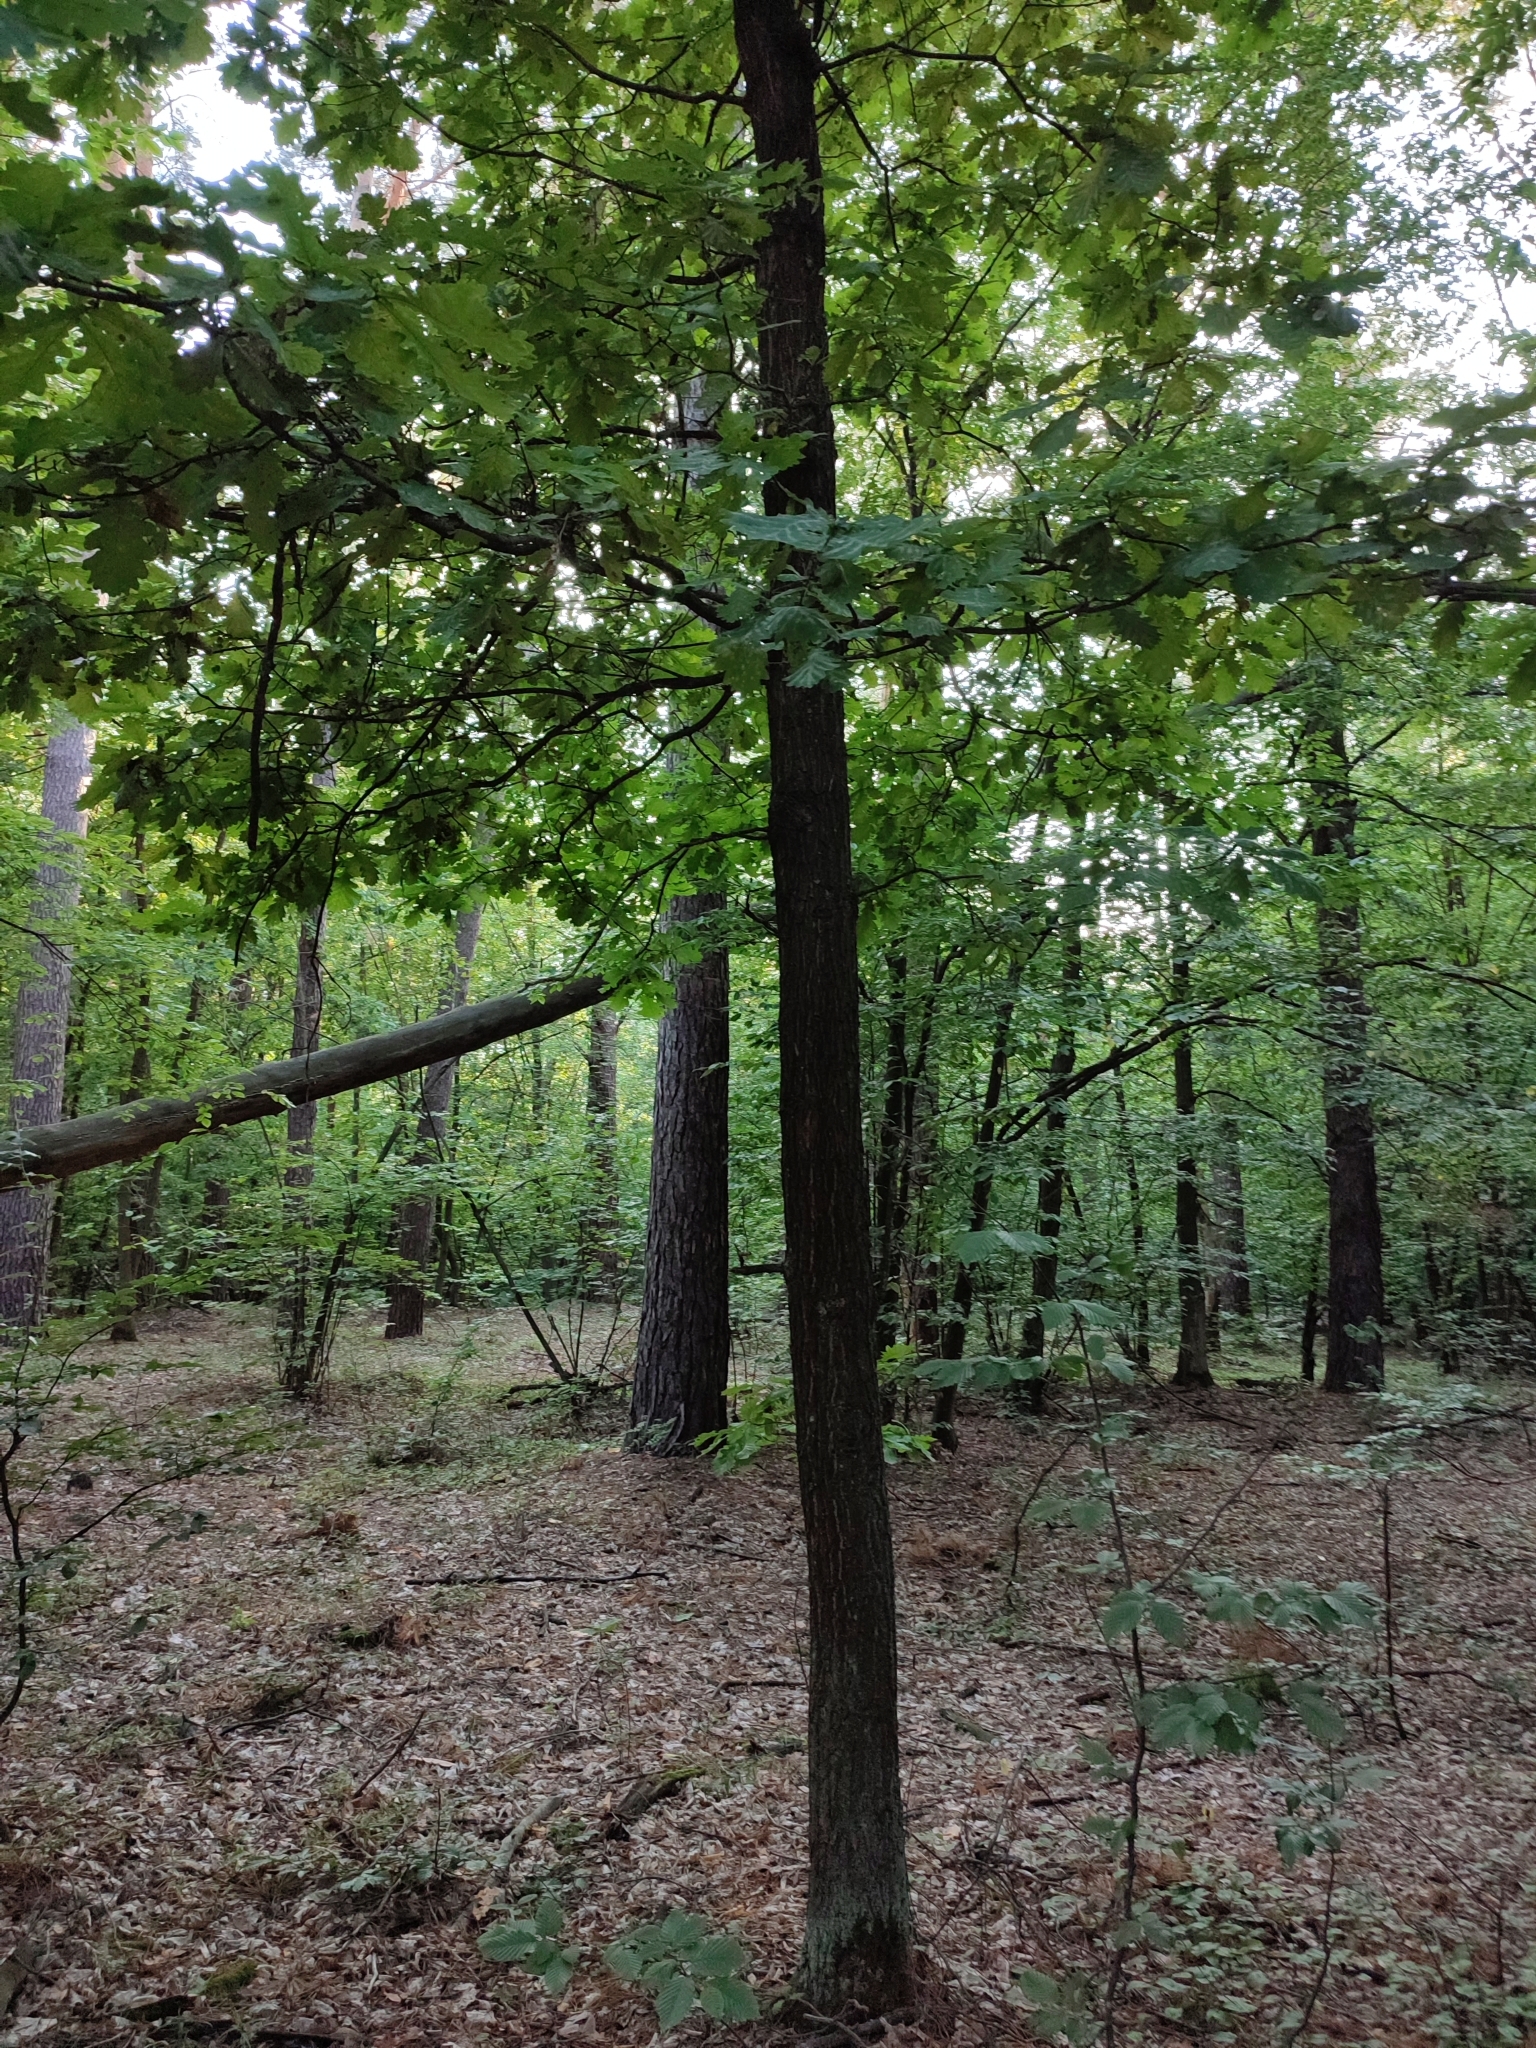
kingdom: Plantae
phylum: Tracheophyta
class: Magnoliopsida
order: Fagales
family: Fagaceae
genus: Quercus
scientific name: Quercus robur
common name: Pedunculate oak
